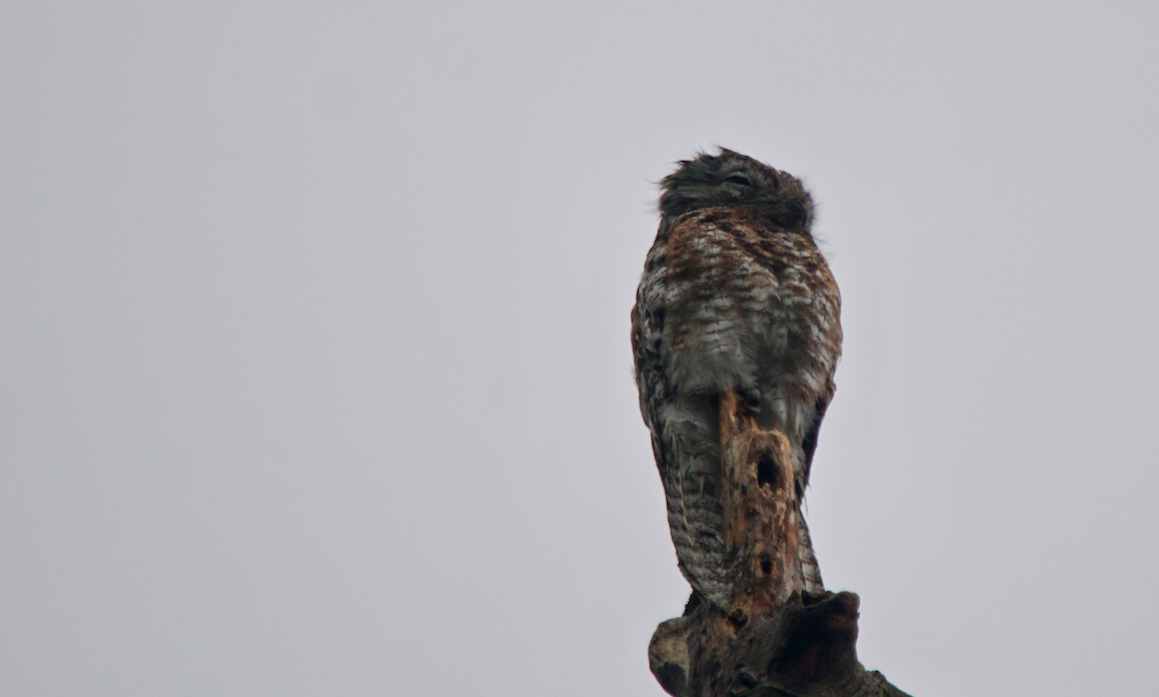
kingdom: Animalia
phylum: Chordata
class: Aves
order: Nyctibiiformes
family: Nyctibiidae
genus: Nyctibius
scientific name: Nyctibius grandis
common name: Great potoo
